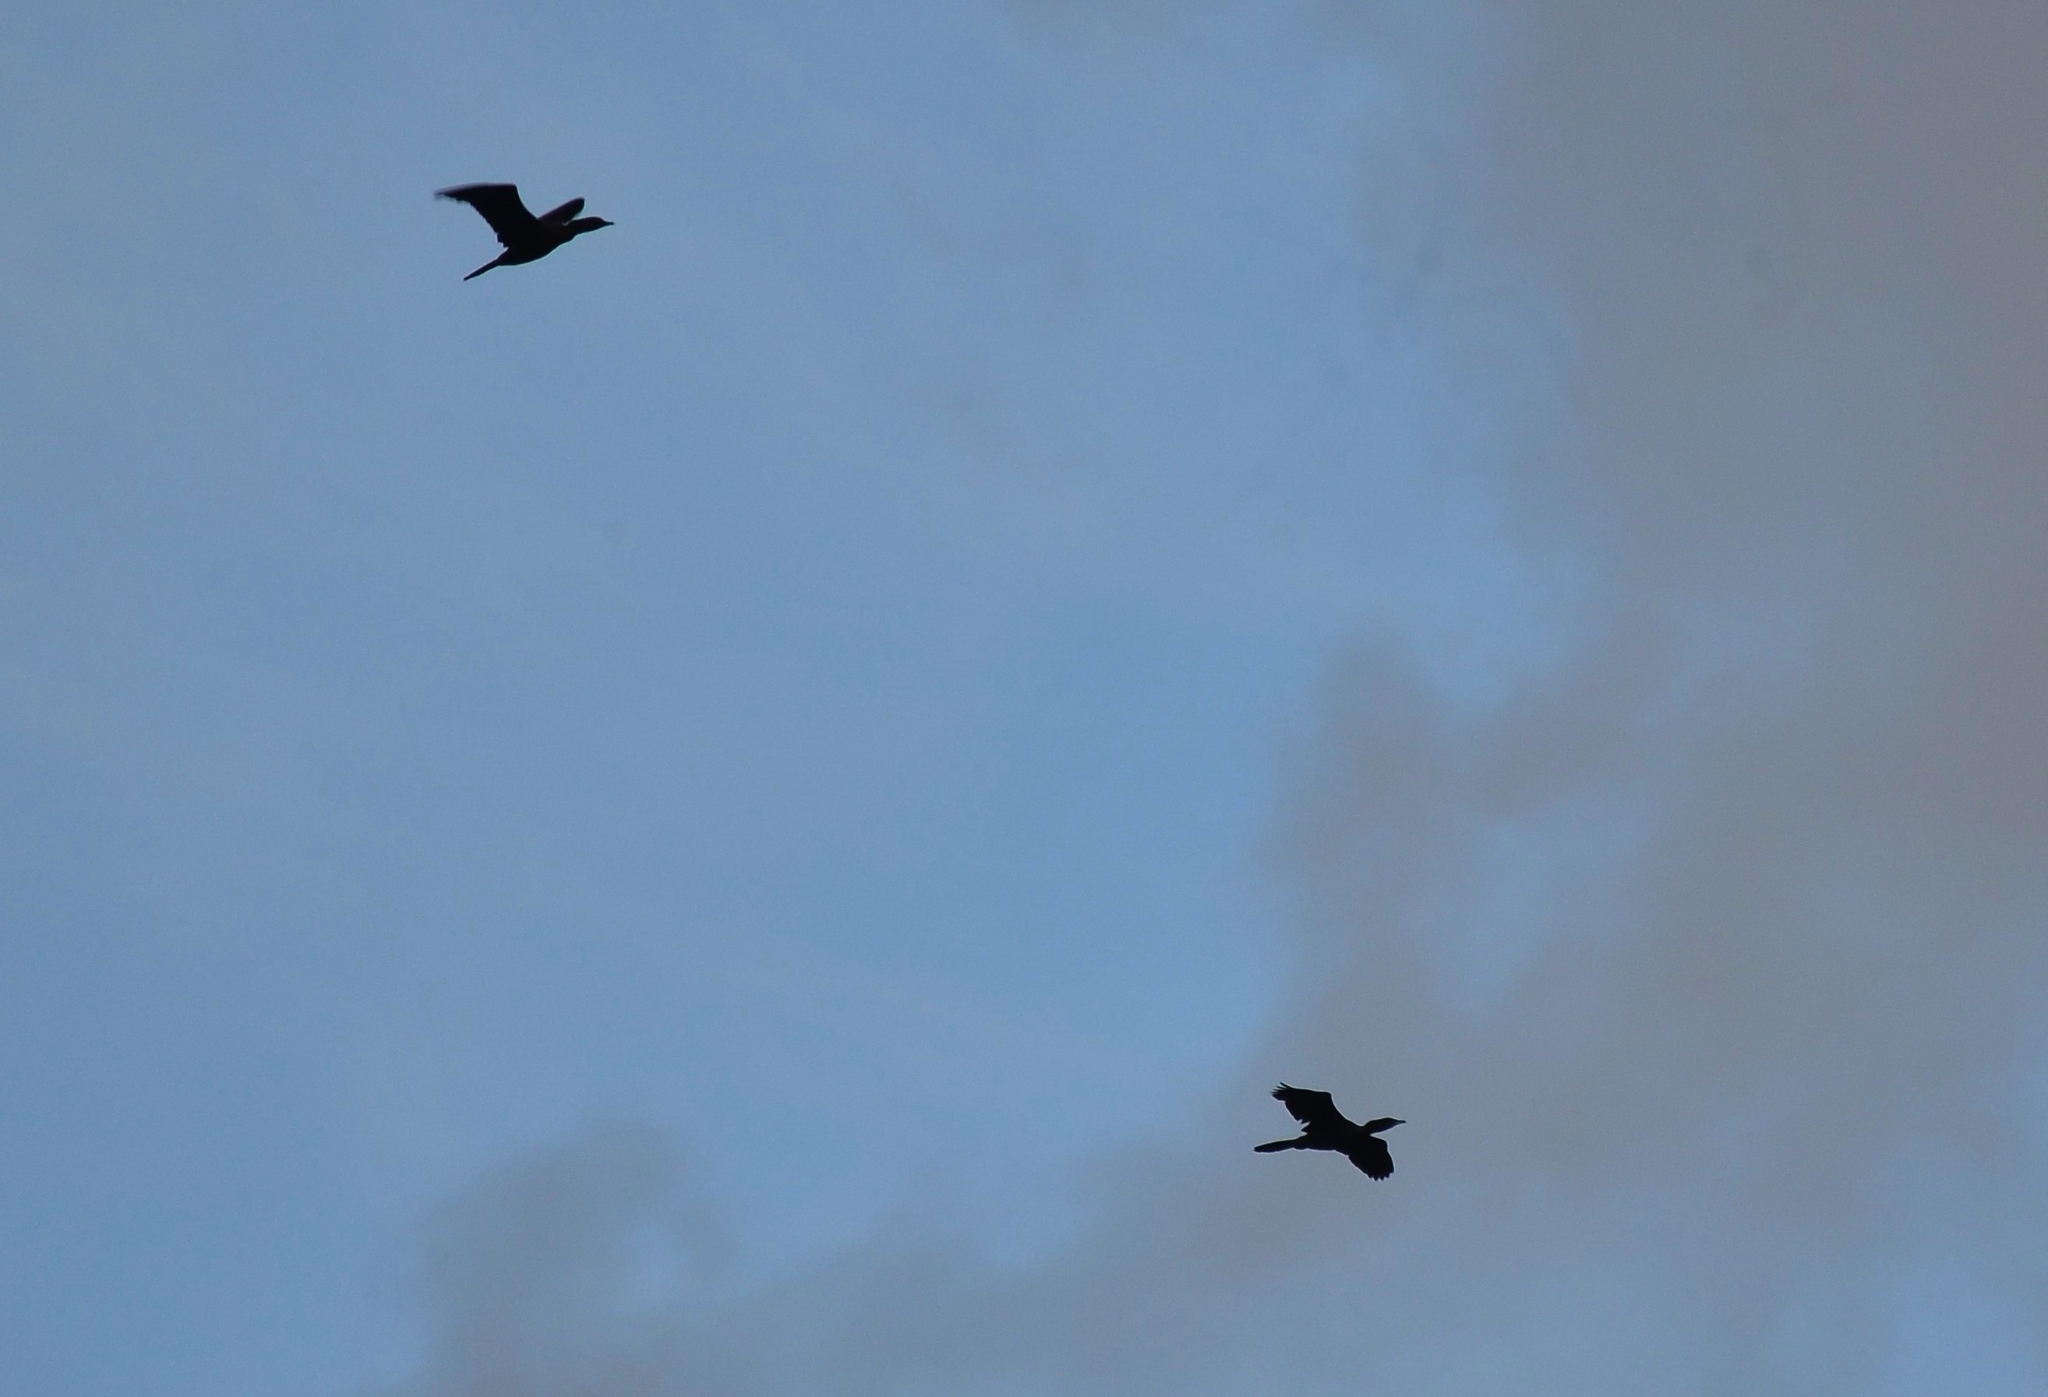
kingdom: Animalia
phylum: Chordata
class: Aves
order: Suliformes
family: Phalacrocoracidae
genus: Microcarbo
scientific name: Microcarbo niger
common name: Little cormorant
